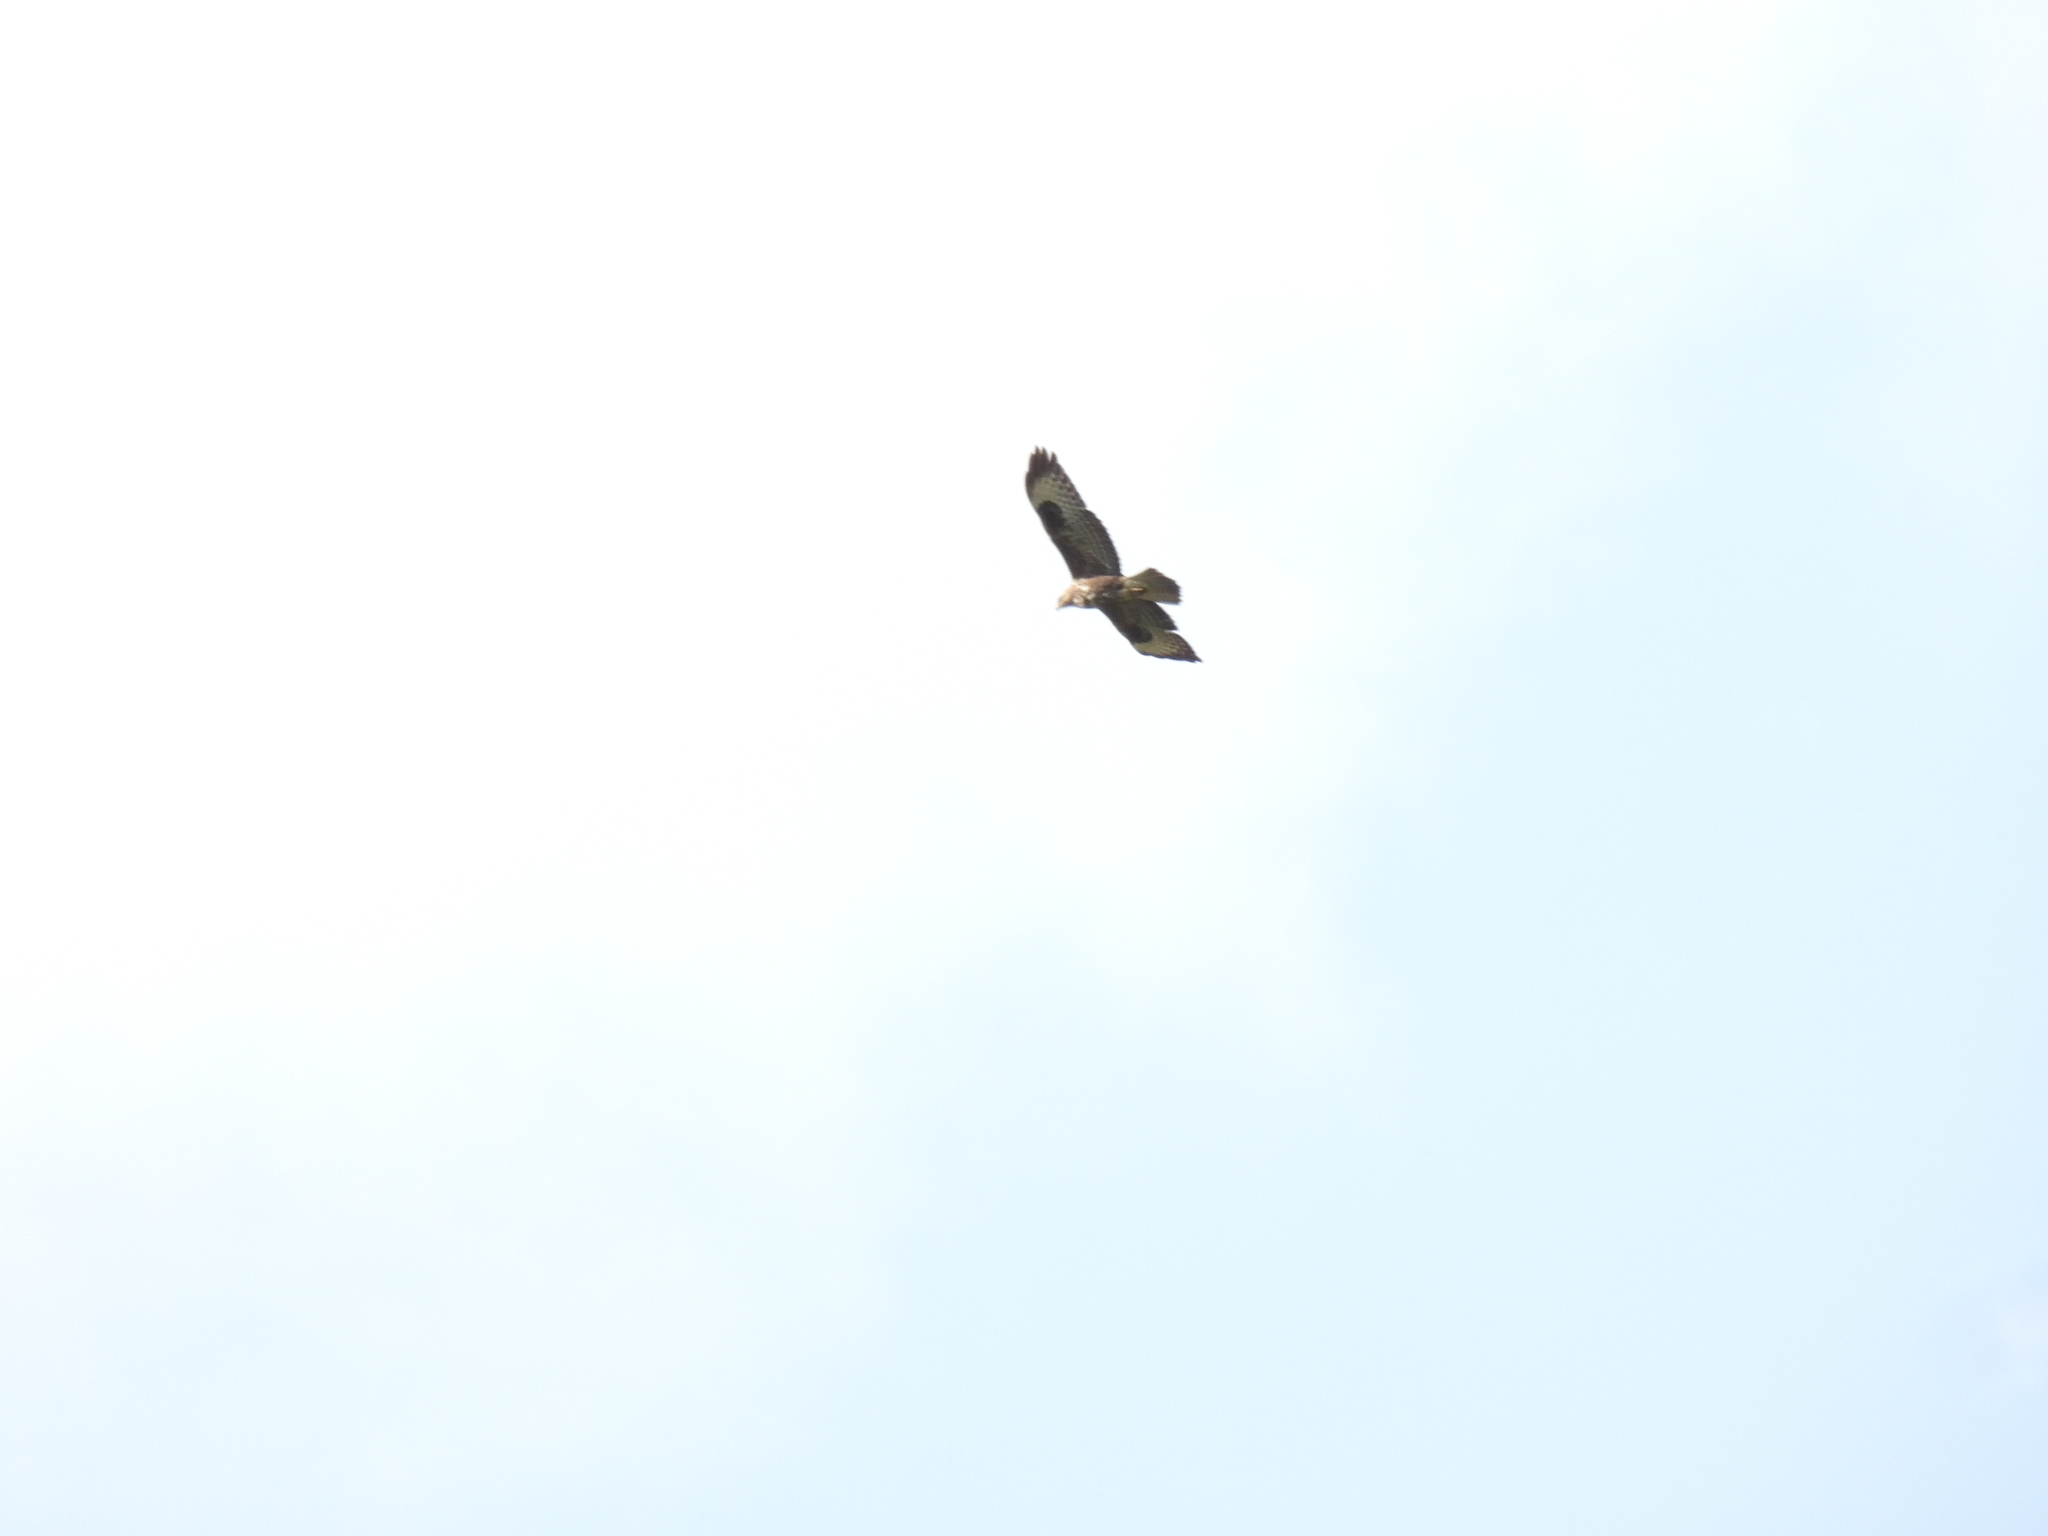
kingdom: Animalia
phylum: Chordata
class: Aves
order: Accipitriformes
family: Accipitridae
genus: Buteo
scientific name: Buteo buteo
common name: Common buzzard
